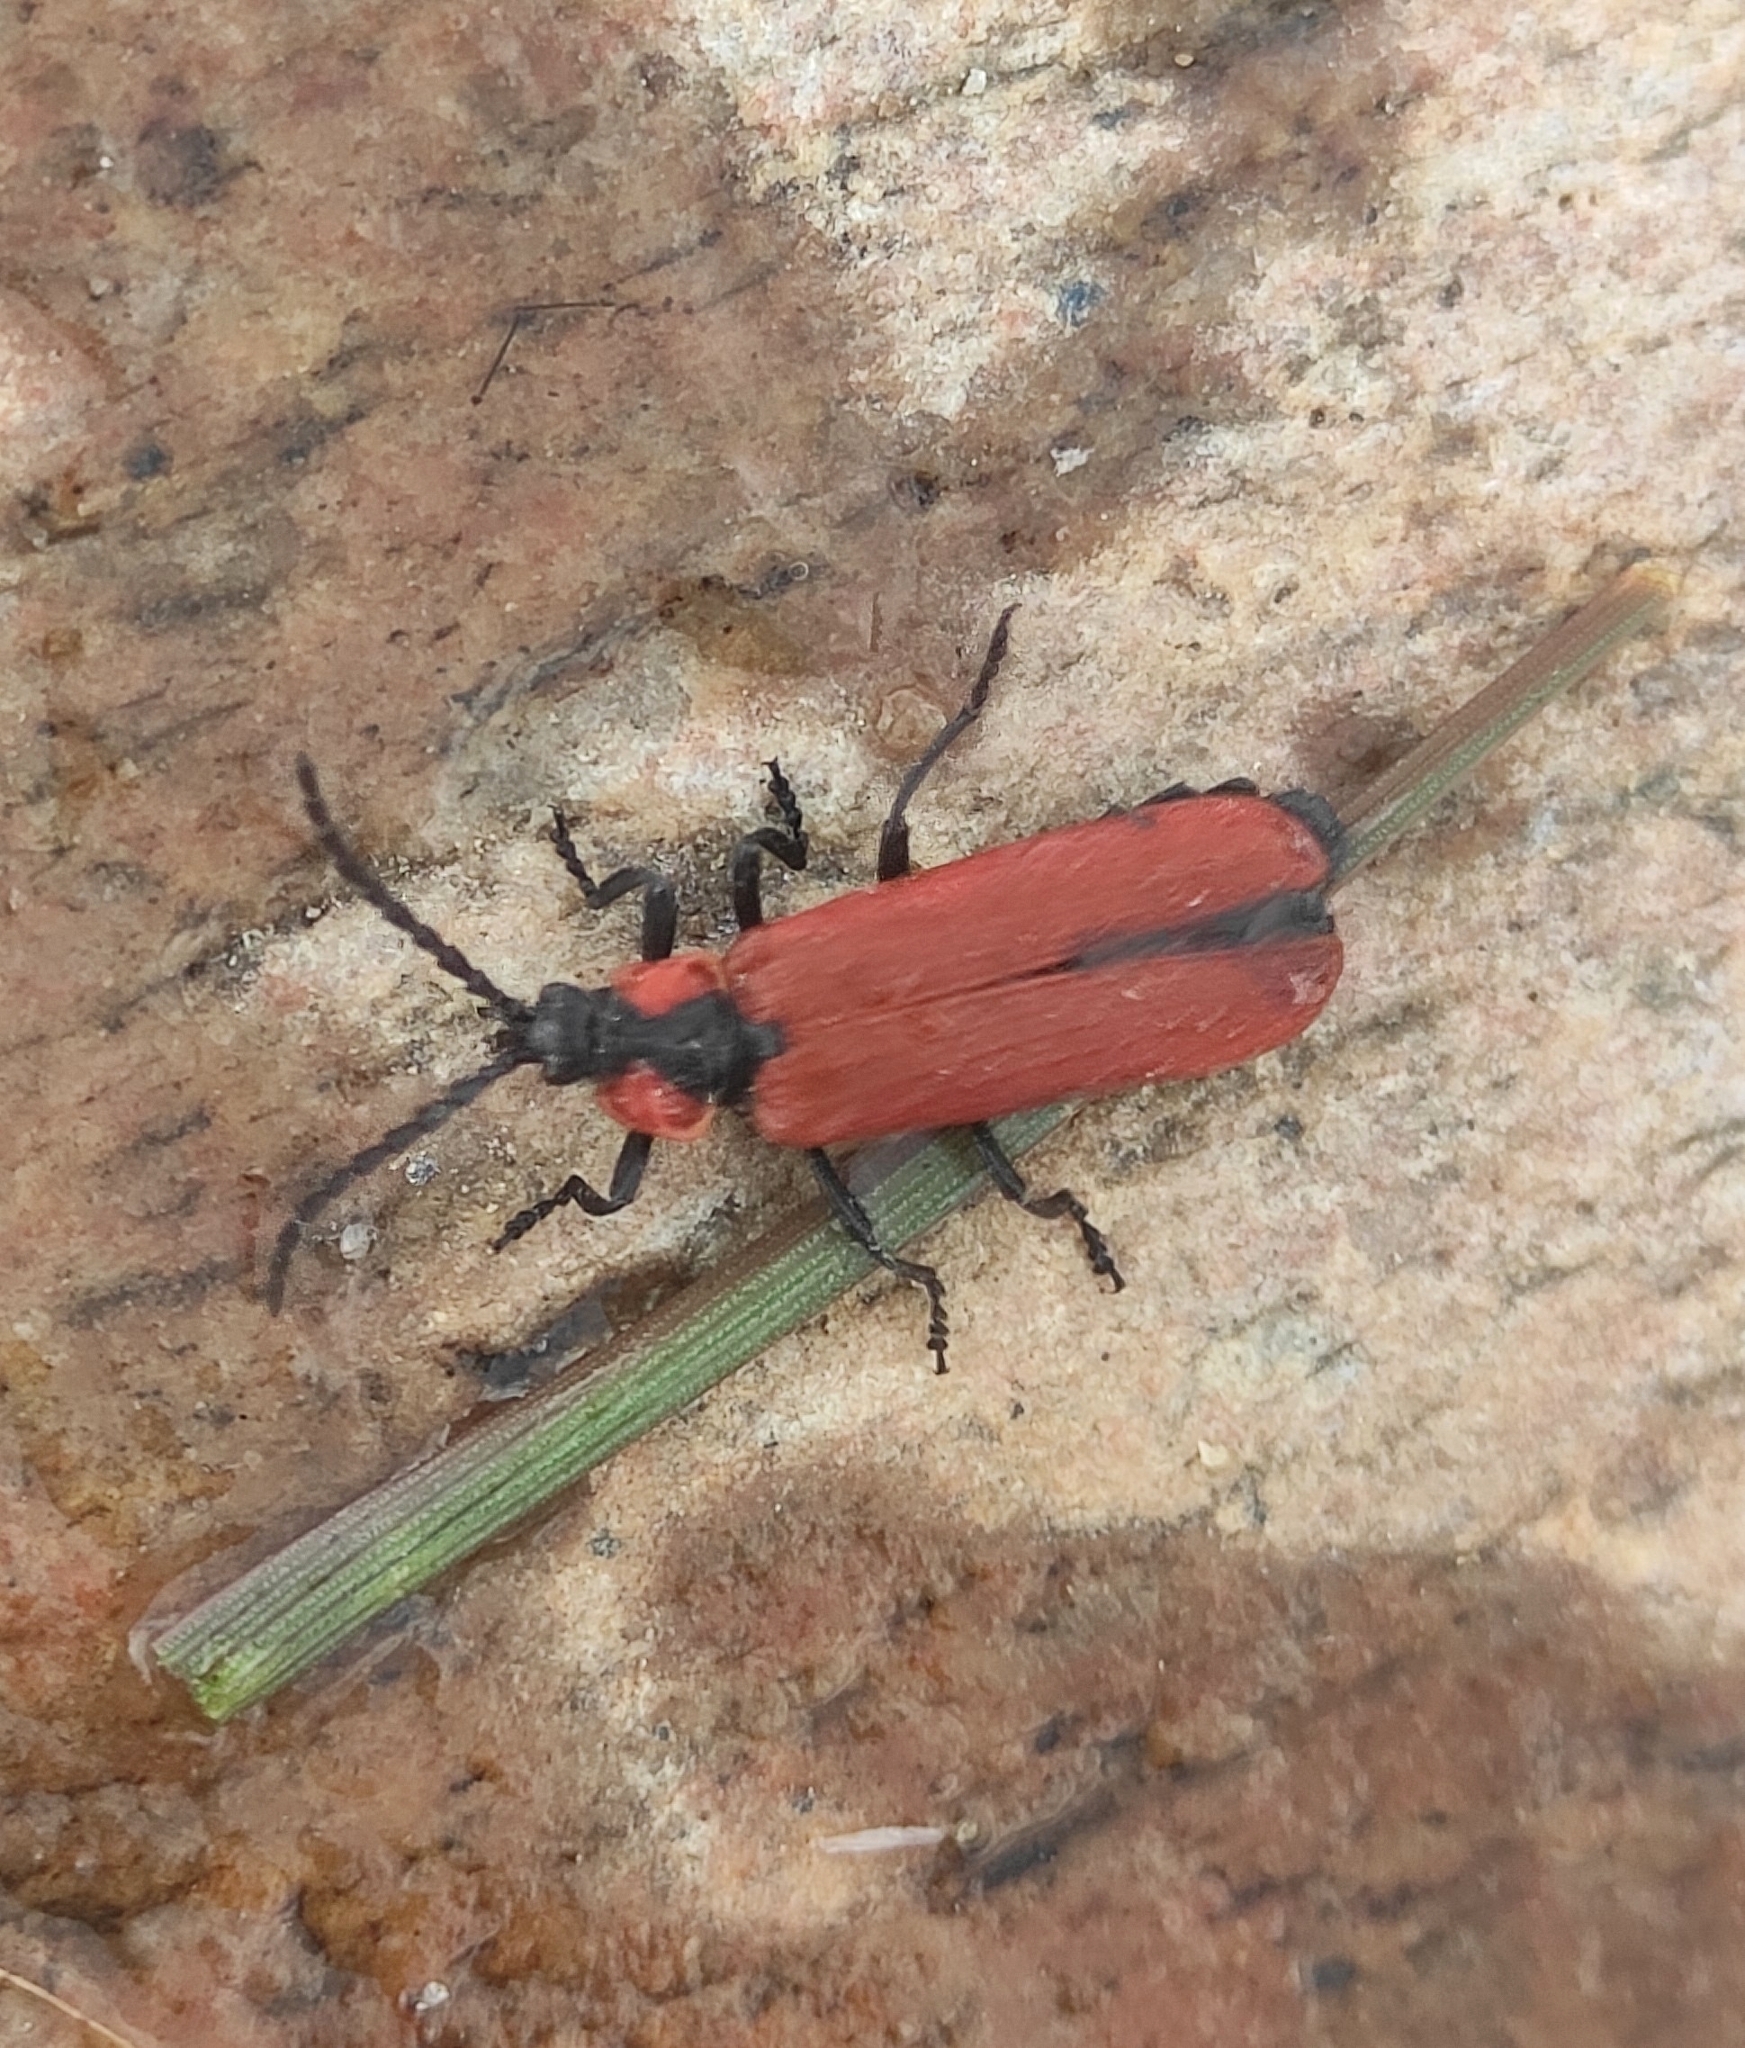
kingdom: Animalia
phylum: Arthropoda
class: Insecta
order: Coleoptera
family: Lycidae
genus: Lygistopterus
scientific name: Lygistopterus sanguineus
